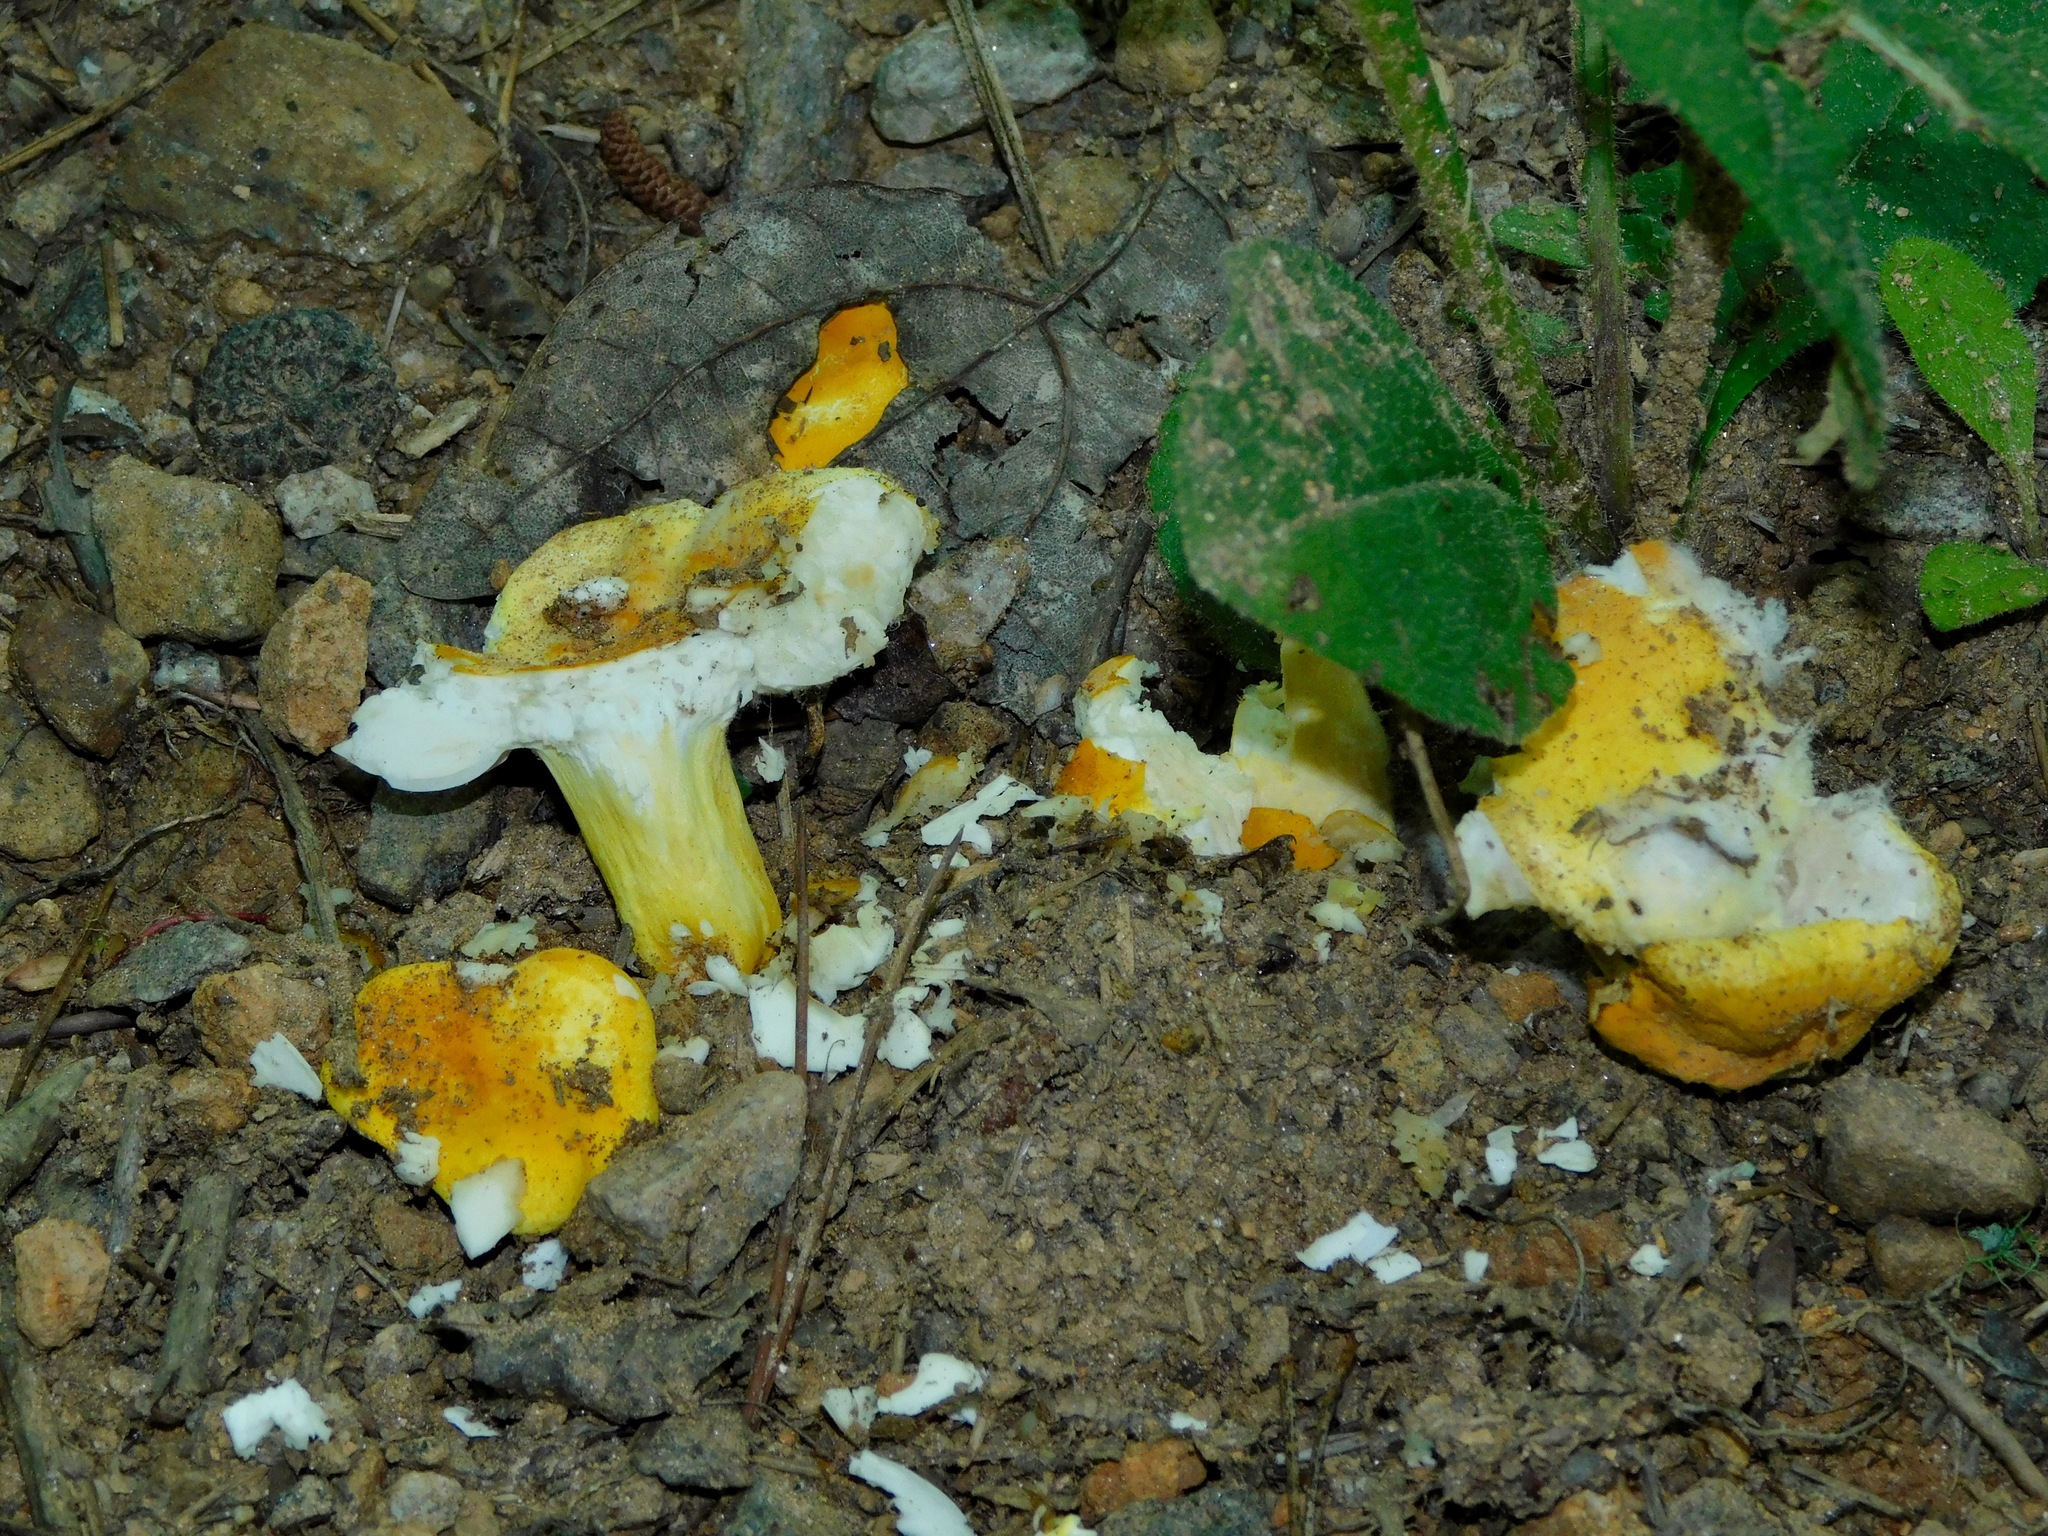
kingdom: Fungi
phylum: Basidiomycota
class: Agaricomycetes
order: Russulales
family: Russulaceae
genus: Russula
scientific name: Russula flavida
